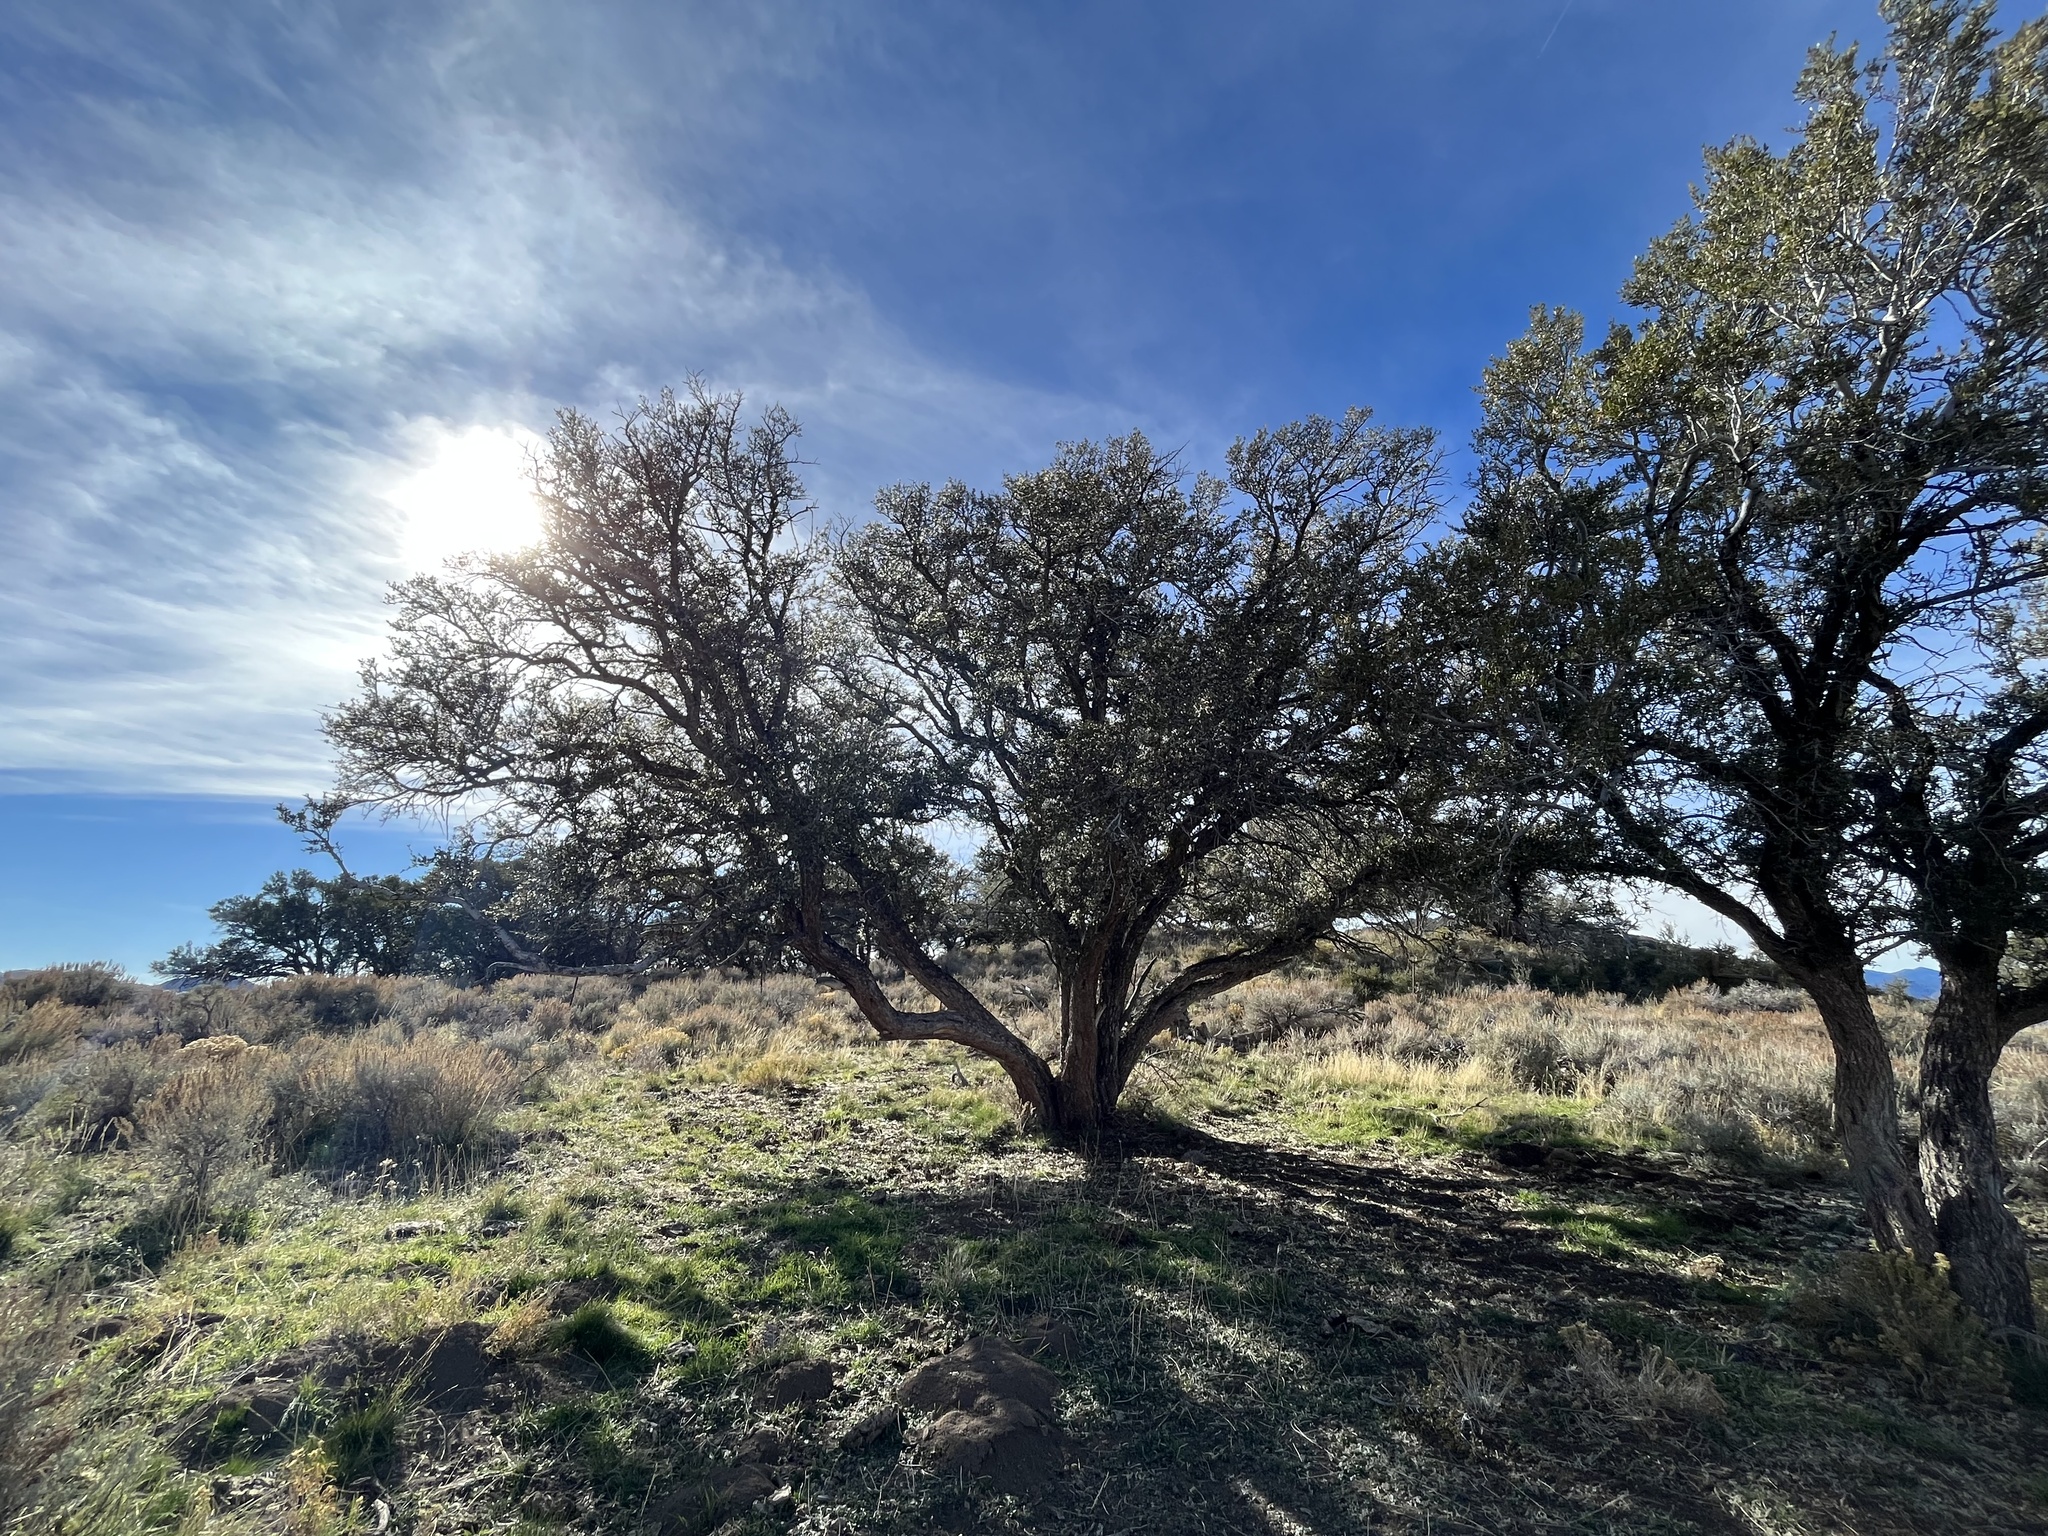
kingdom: Plantae
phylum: Tracheophyta
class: Magnoliopsida
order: Rosales
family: Rosaceae
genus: Cercocarpus
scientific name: Cercocarpus ledifolius
